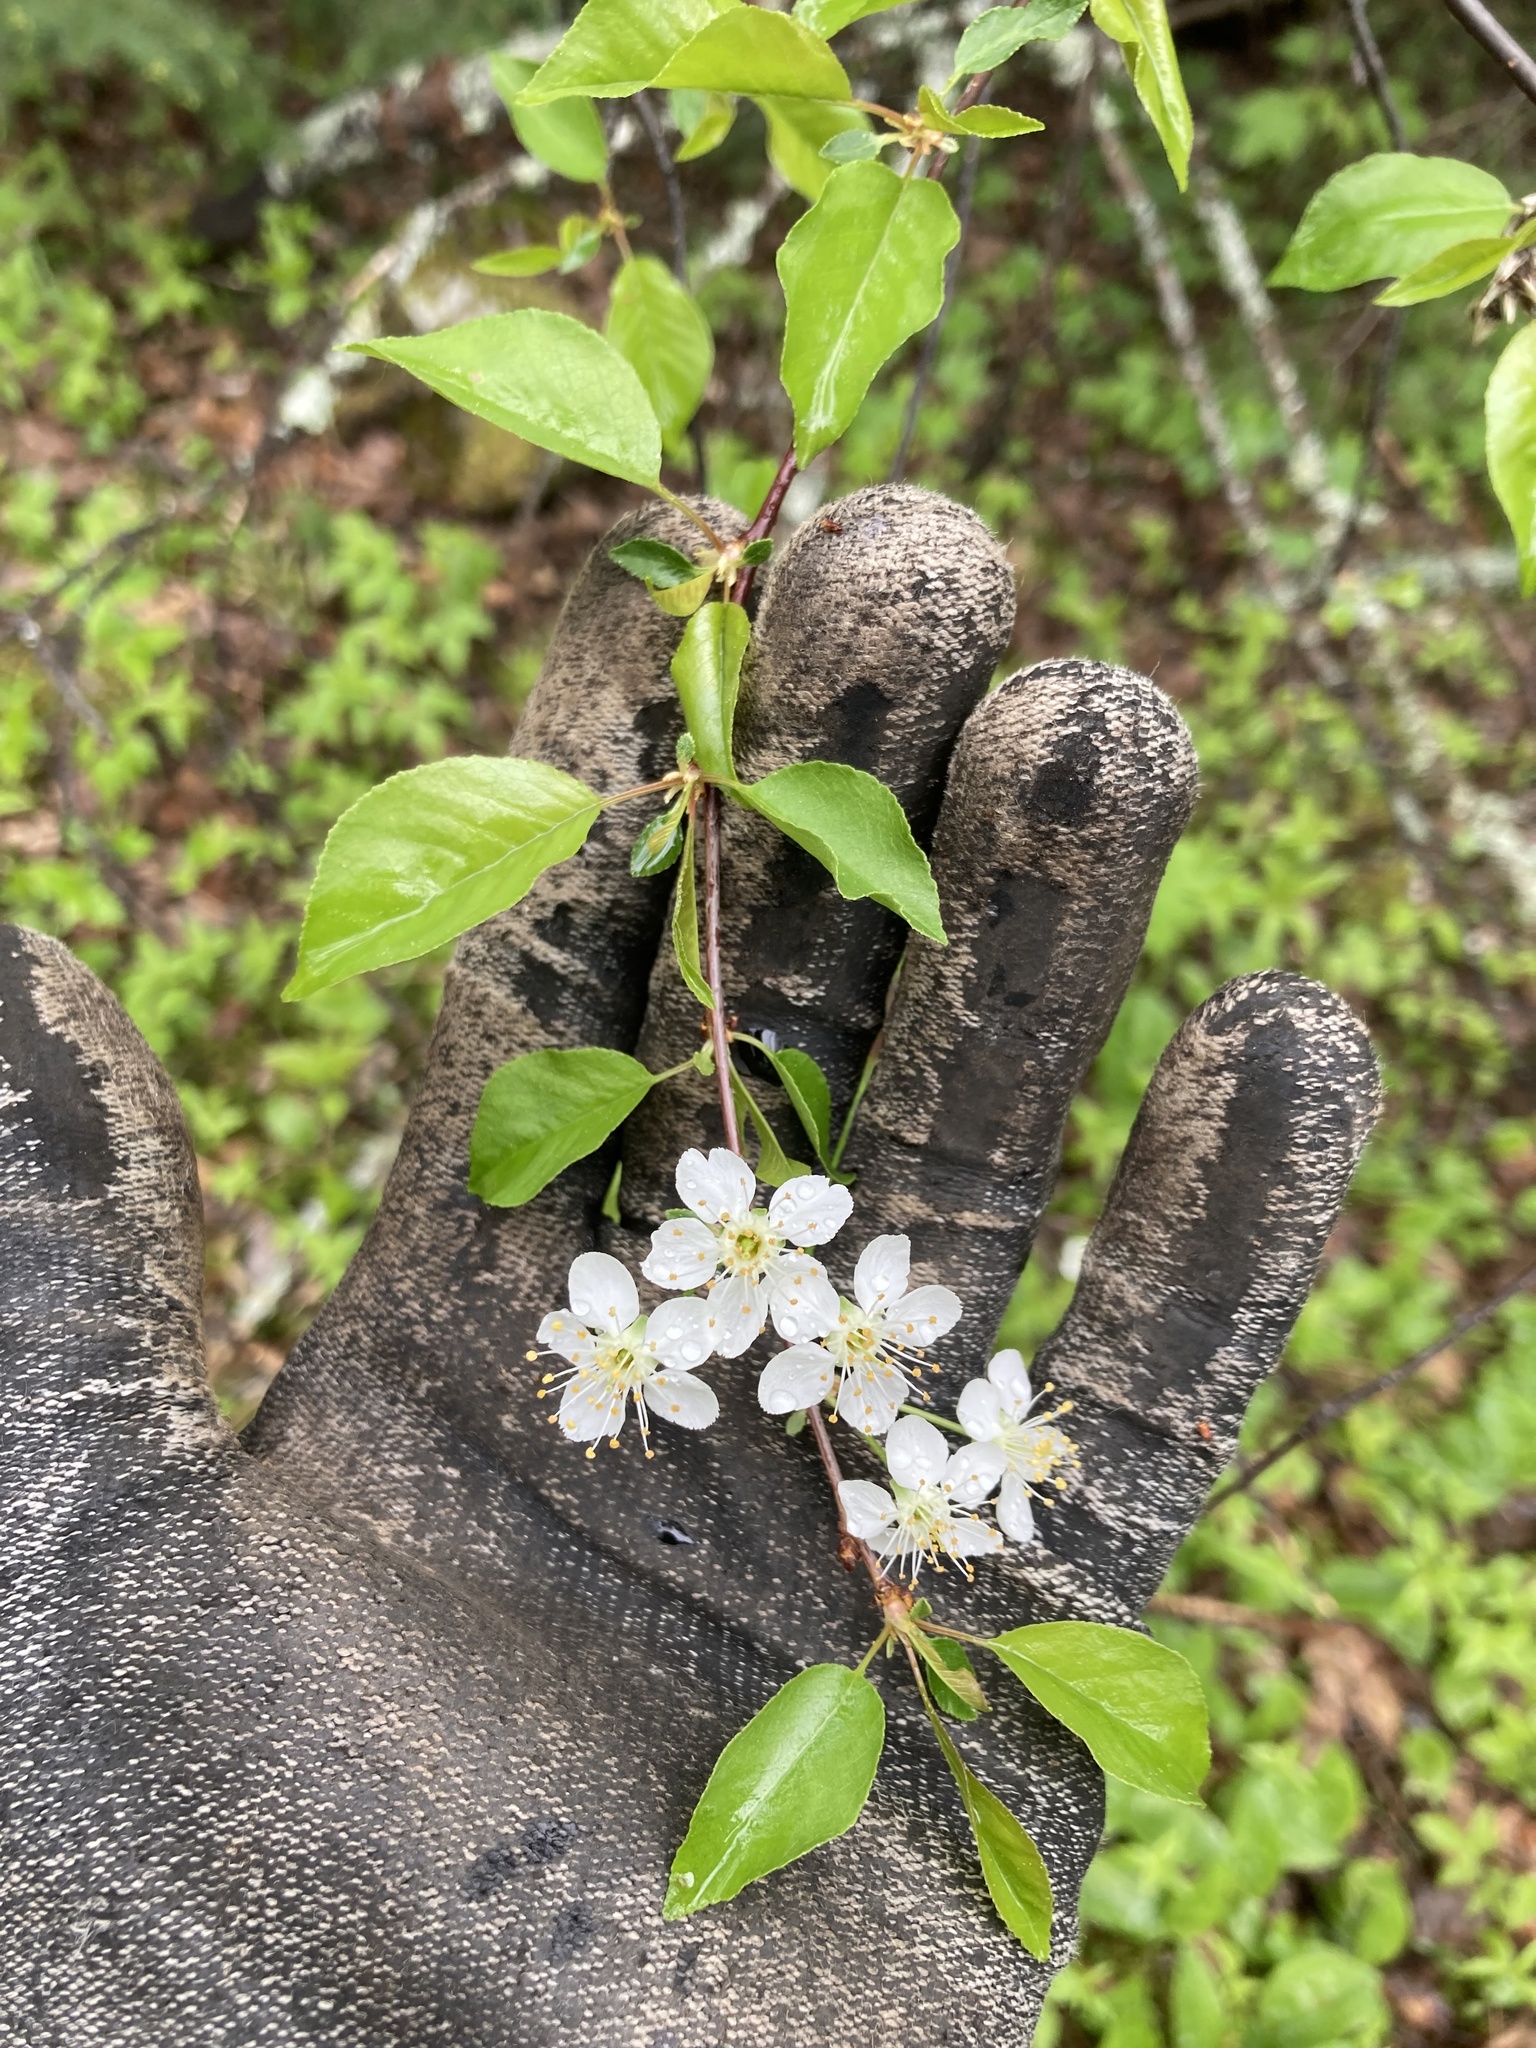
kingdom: Plantae
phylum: Tracheophyta
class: Magnoliopsida
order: Rosales
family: Rosaceae
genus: Prunus
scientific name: Prunus pensylvanica
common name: Pin cherry
